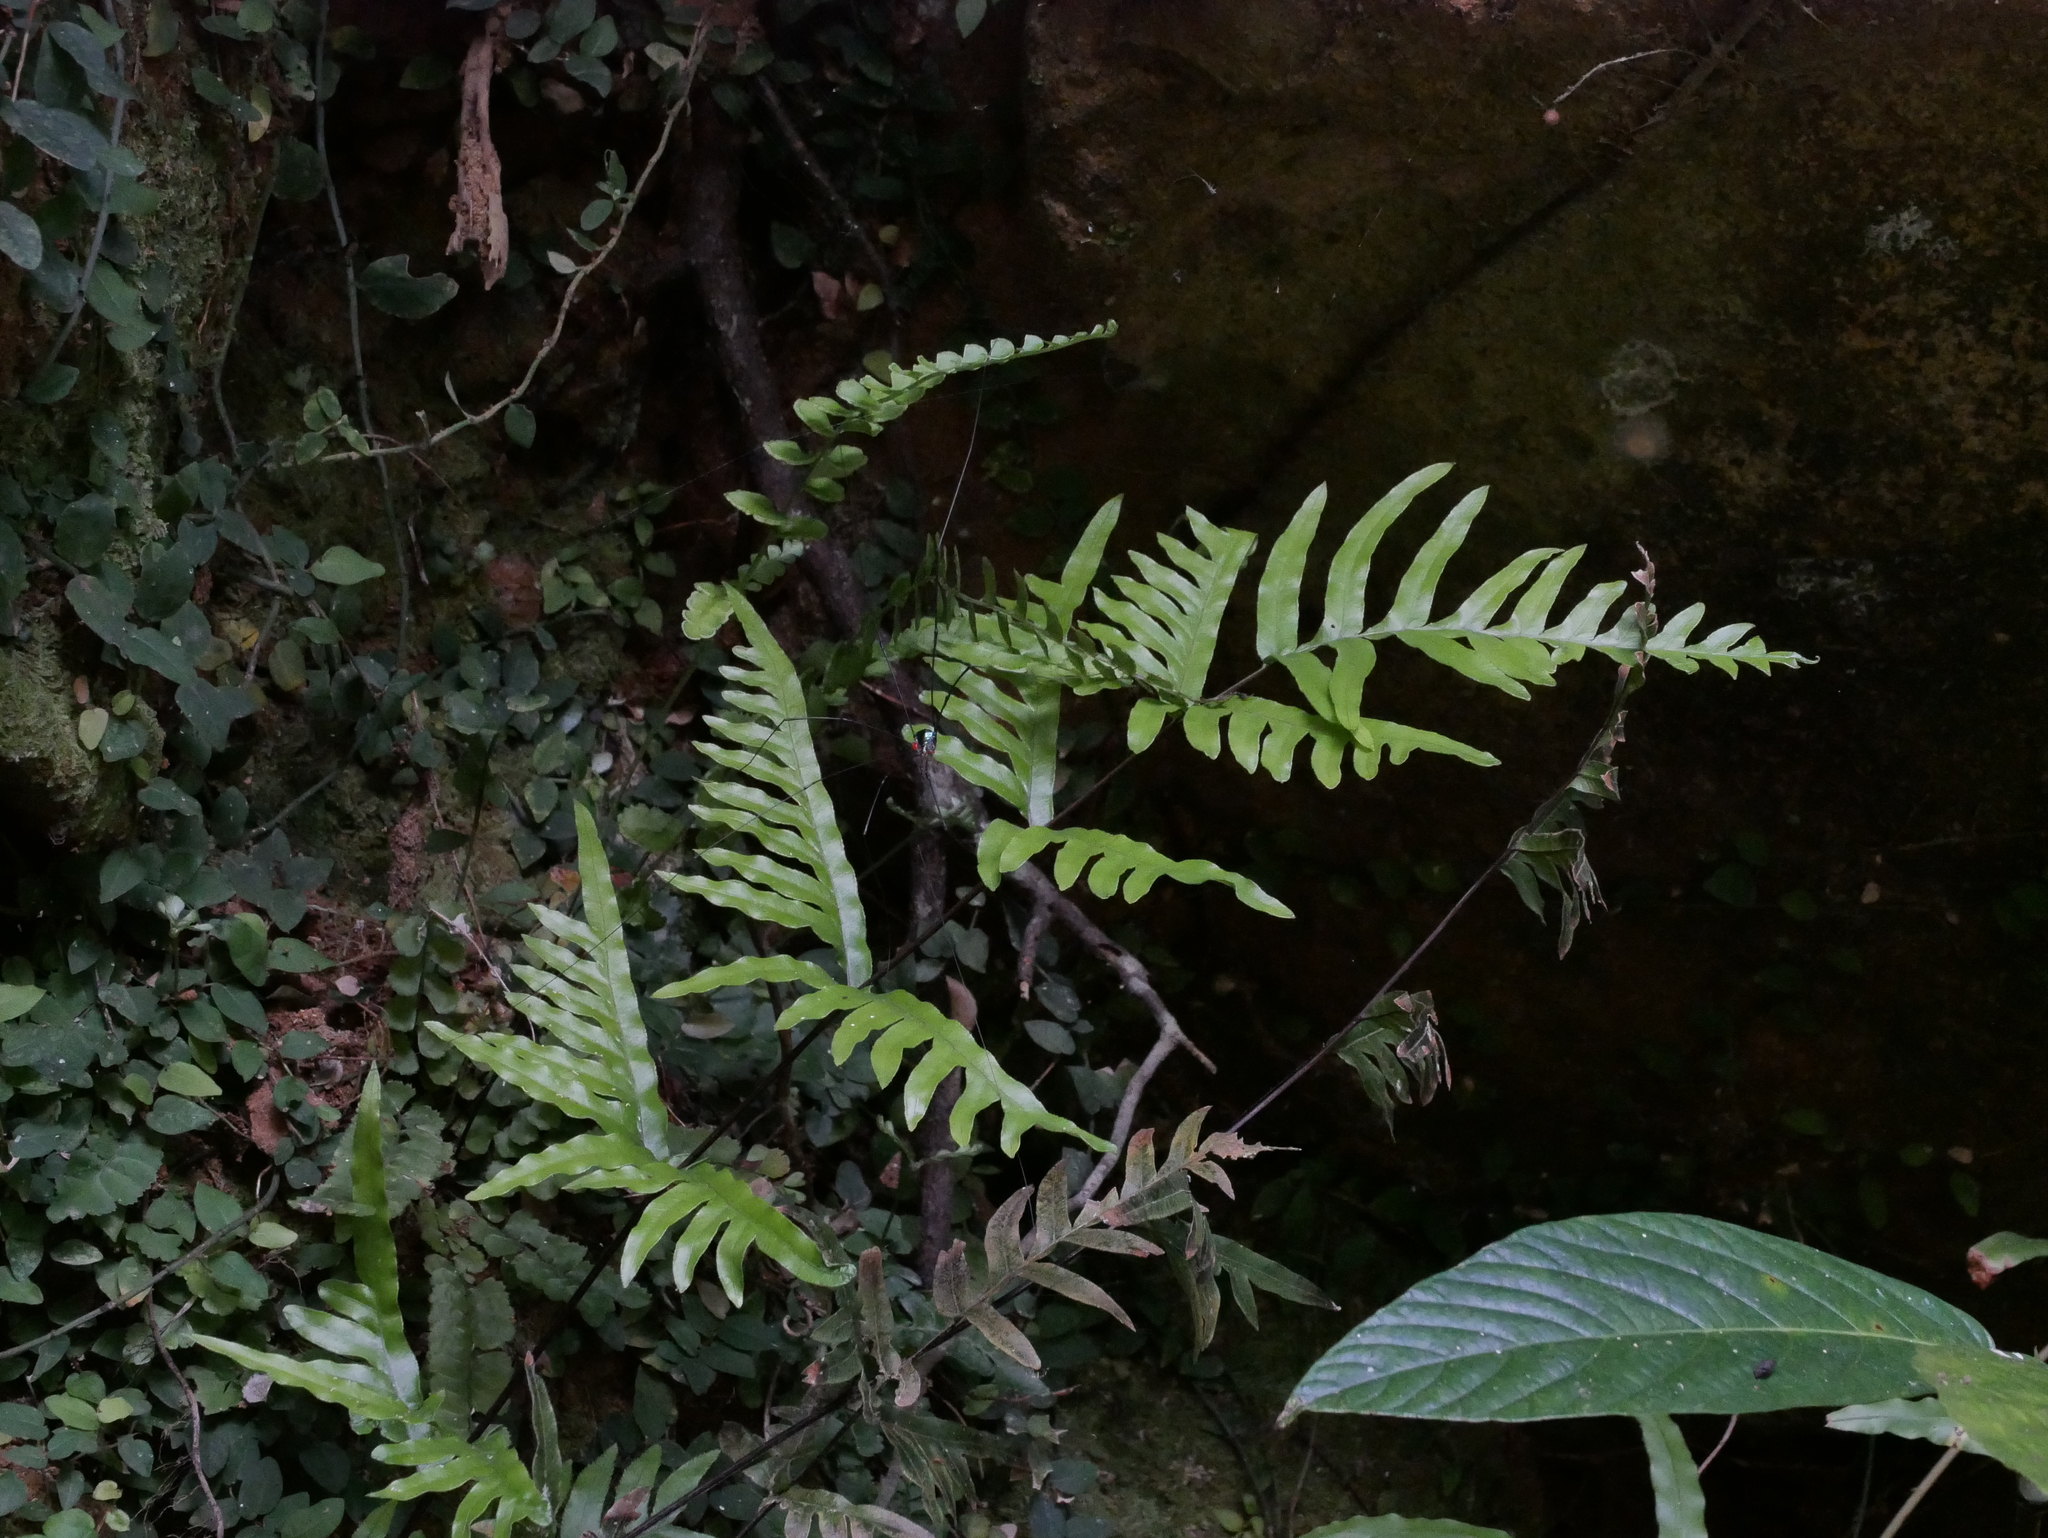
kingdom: Plantae
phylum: Tracheophyta
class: Polypodiopsida
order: Polypodiales
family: Pteridaceae
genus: Pteris
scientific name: Pteris semipinnata
